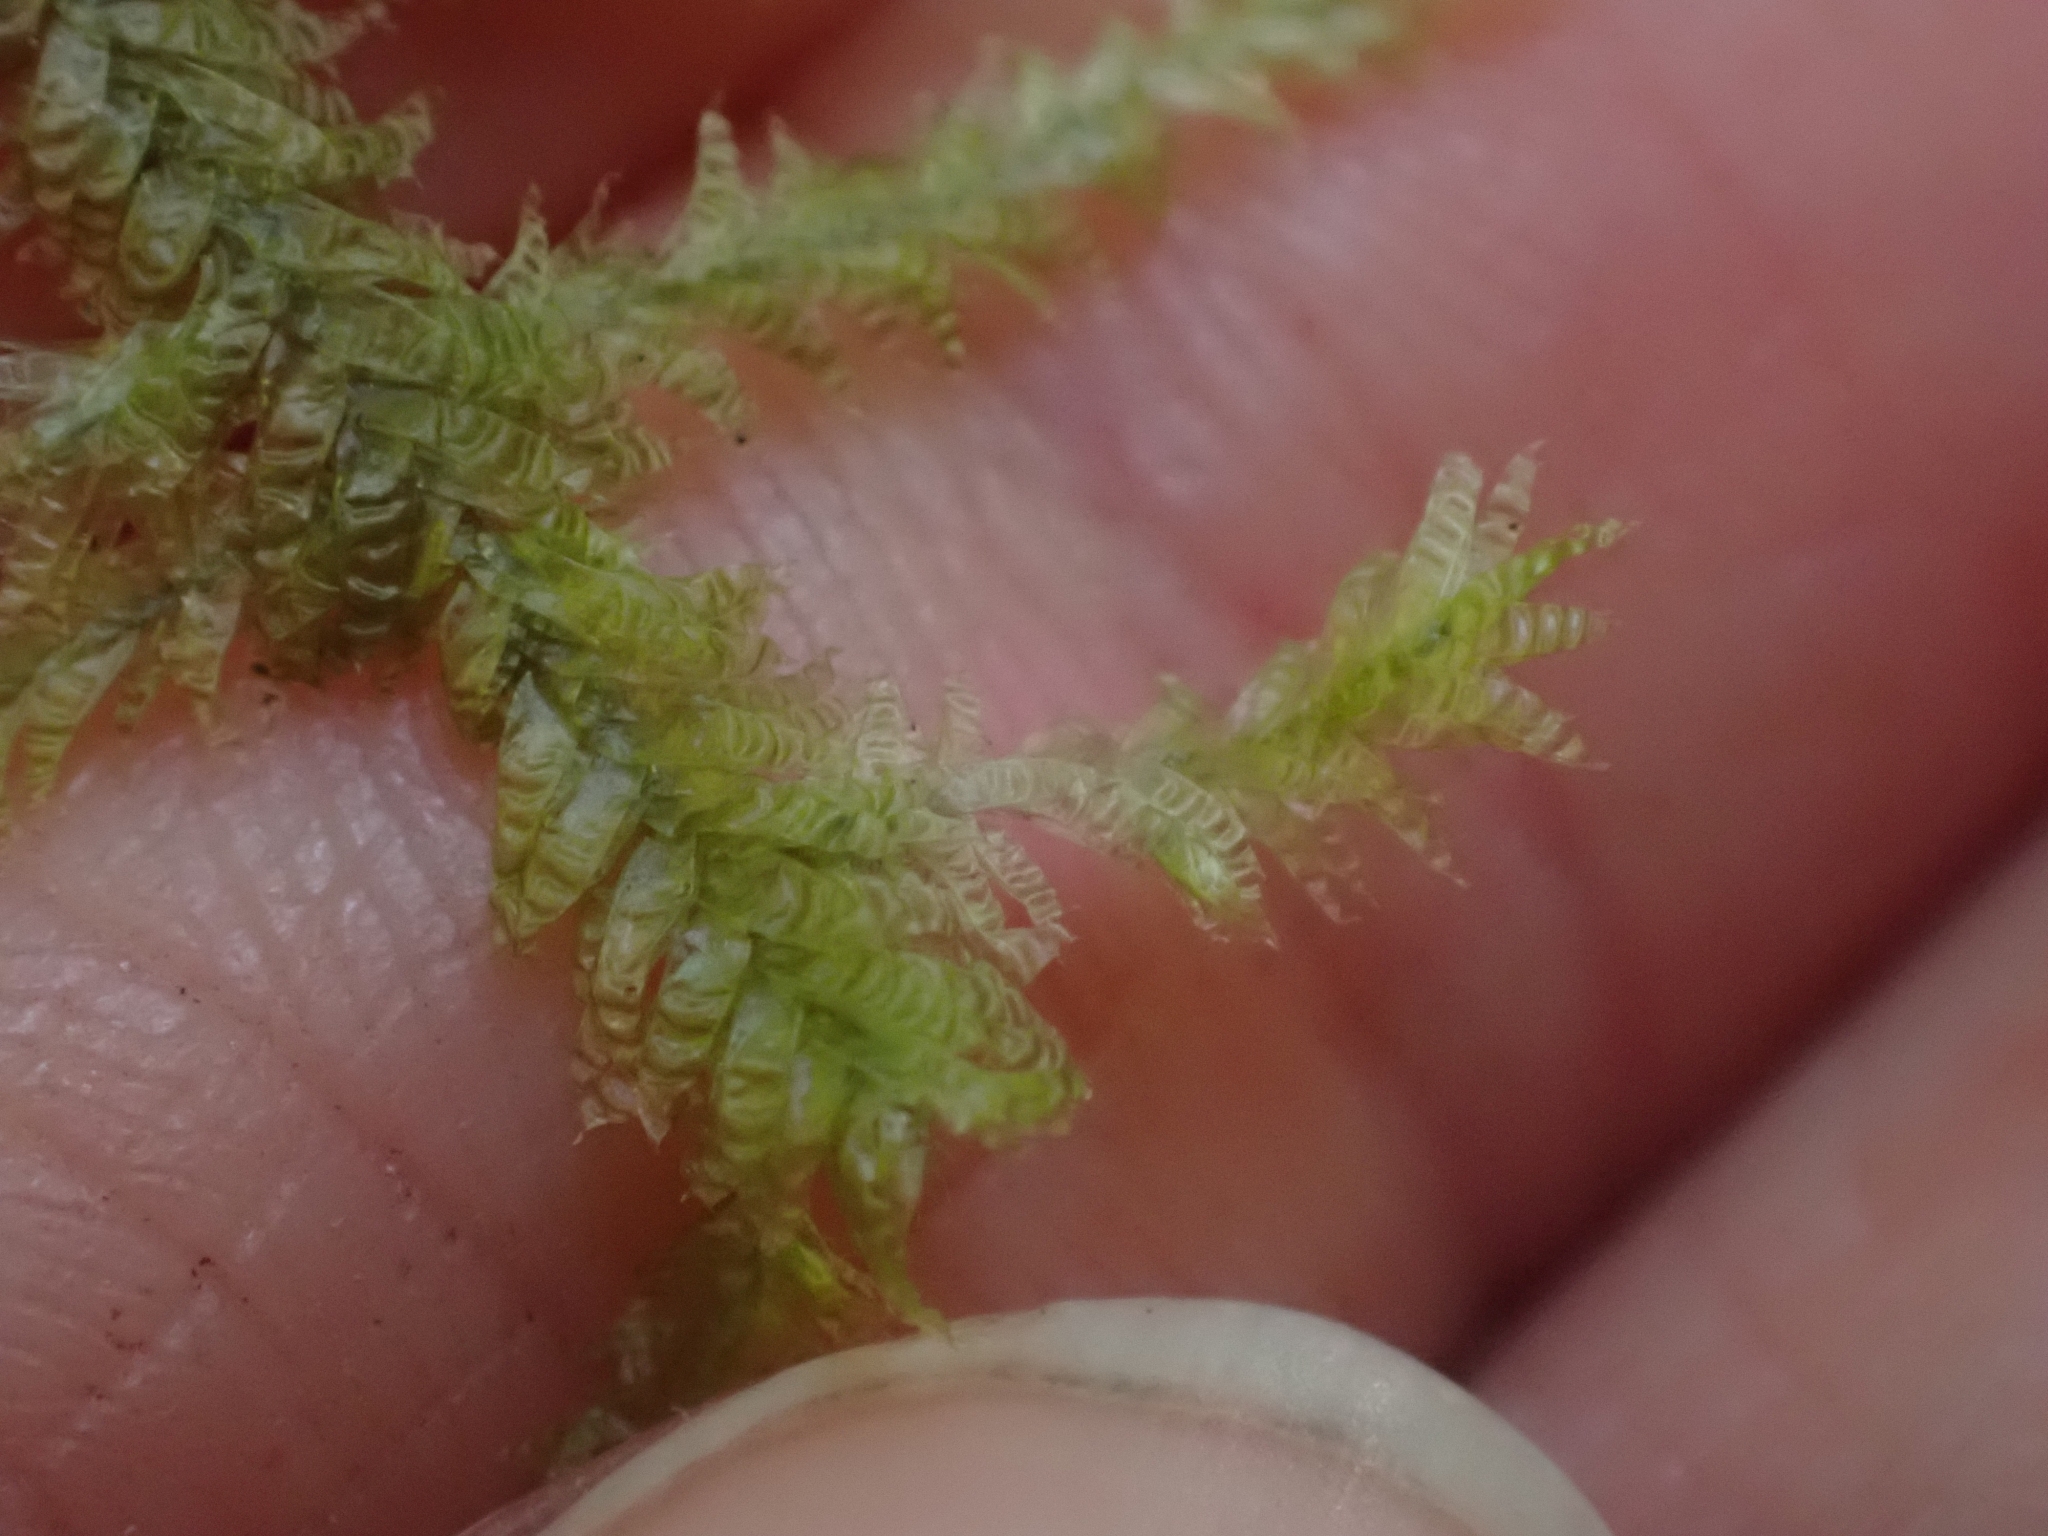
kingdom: Plantae
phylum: Bryophyta
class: Bryopsida
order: Hypnales
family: Neckeraceae
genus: Neckera
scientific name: Neckera douglasii
